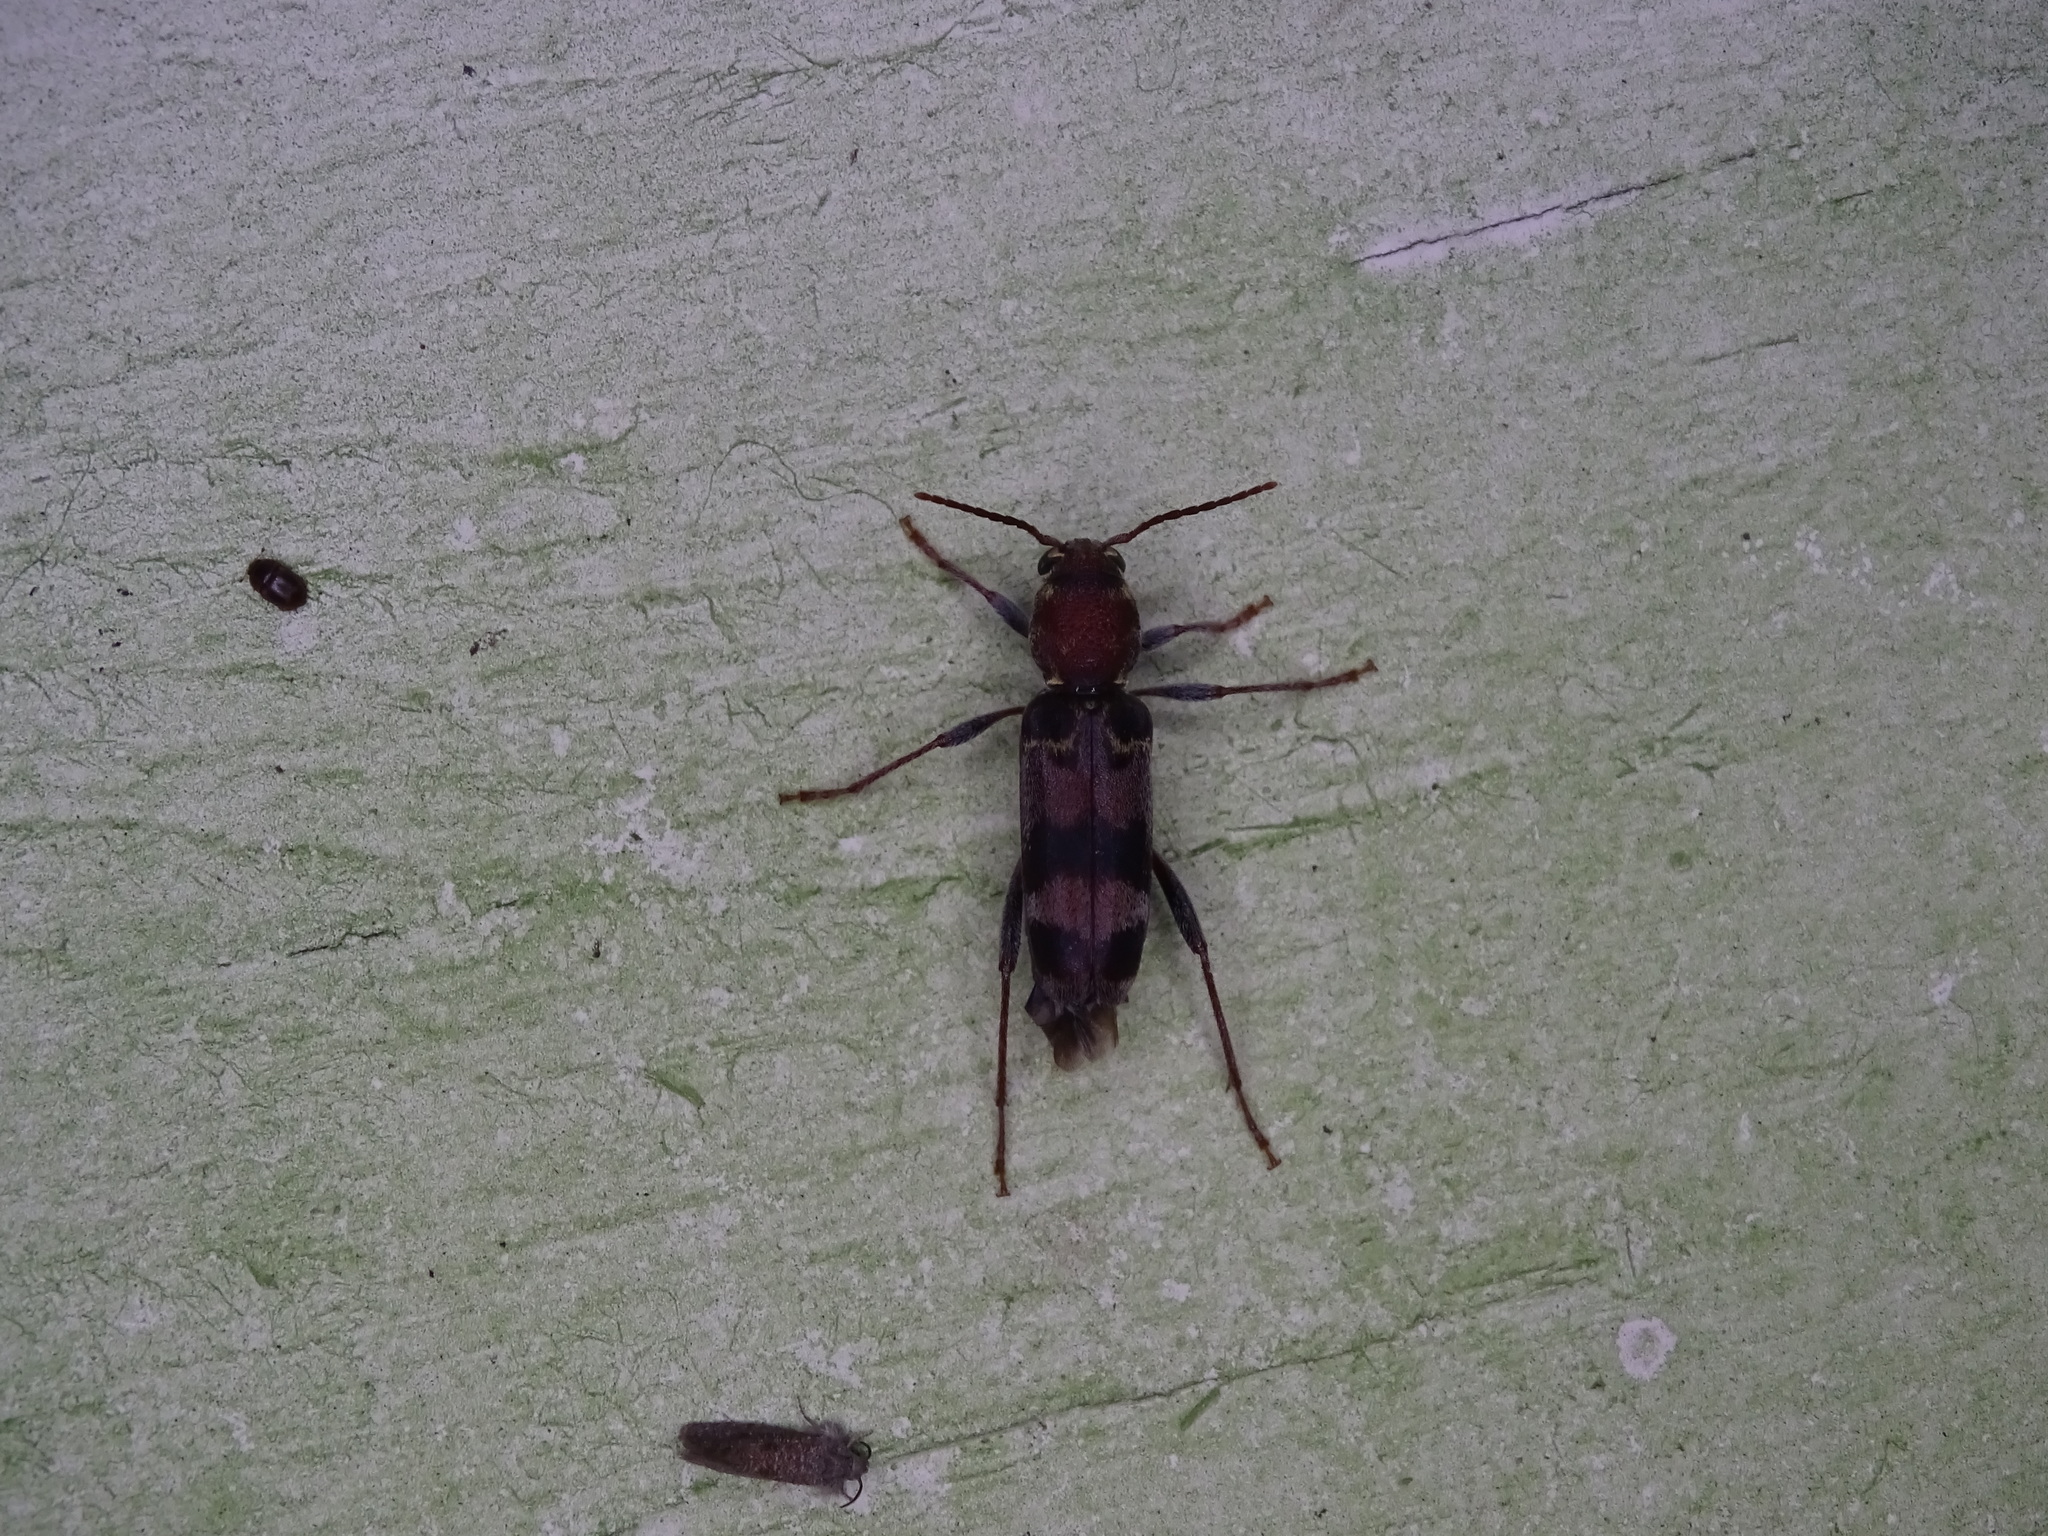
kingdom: Animalia
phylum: Arthropoda
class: Insecta
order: Coleoptera
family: Cerambycidae
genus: Xylotrechus
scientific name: Xylotrechus colonus
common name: Long-horned beetle
